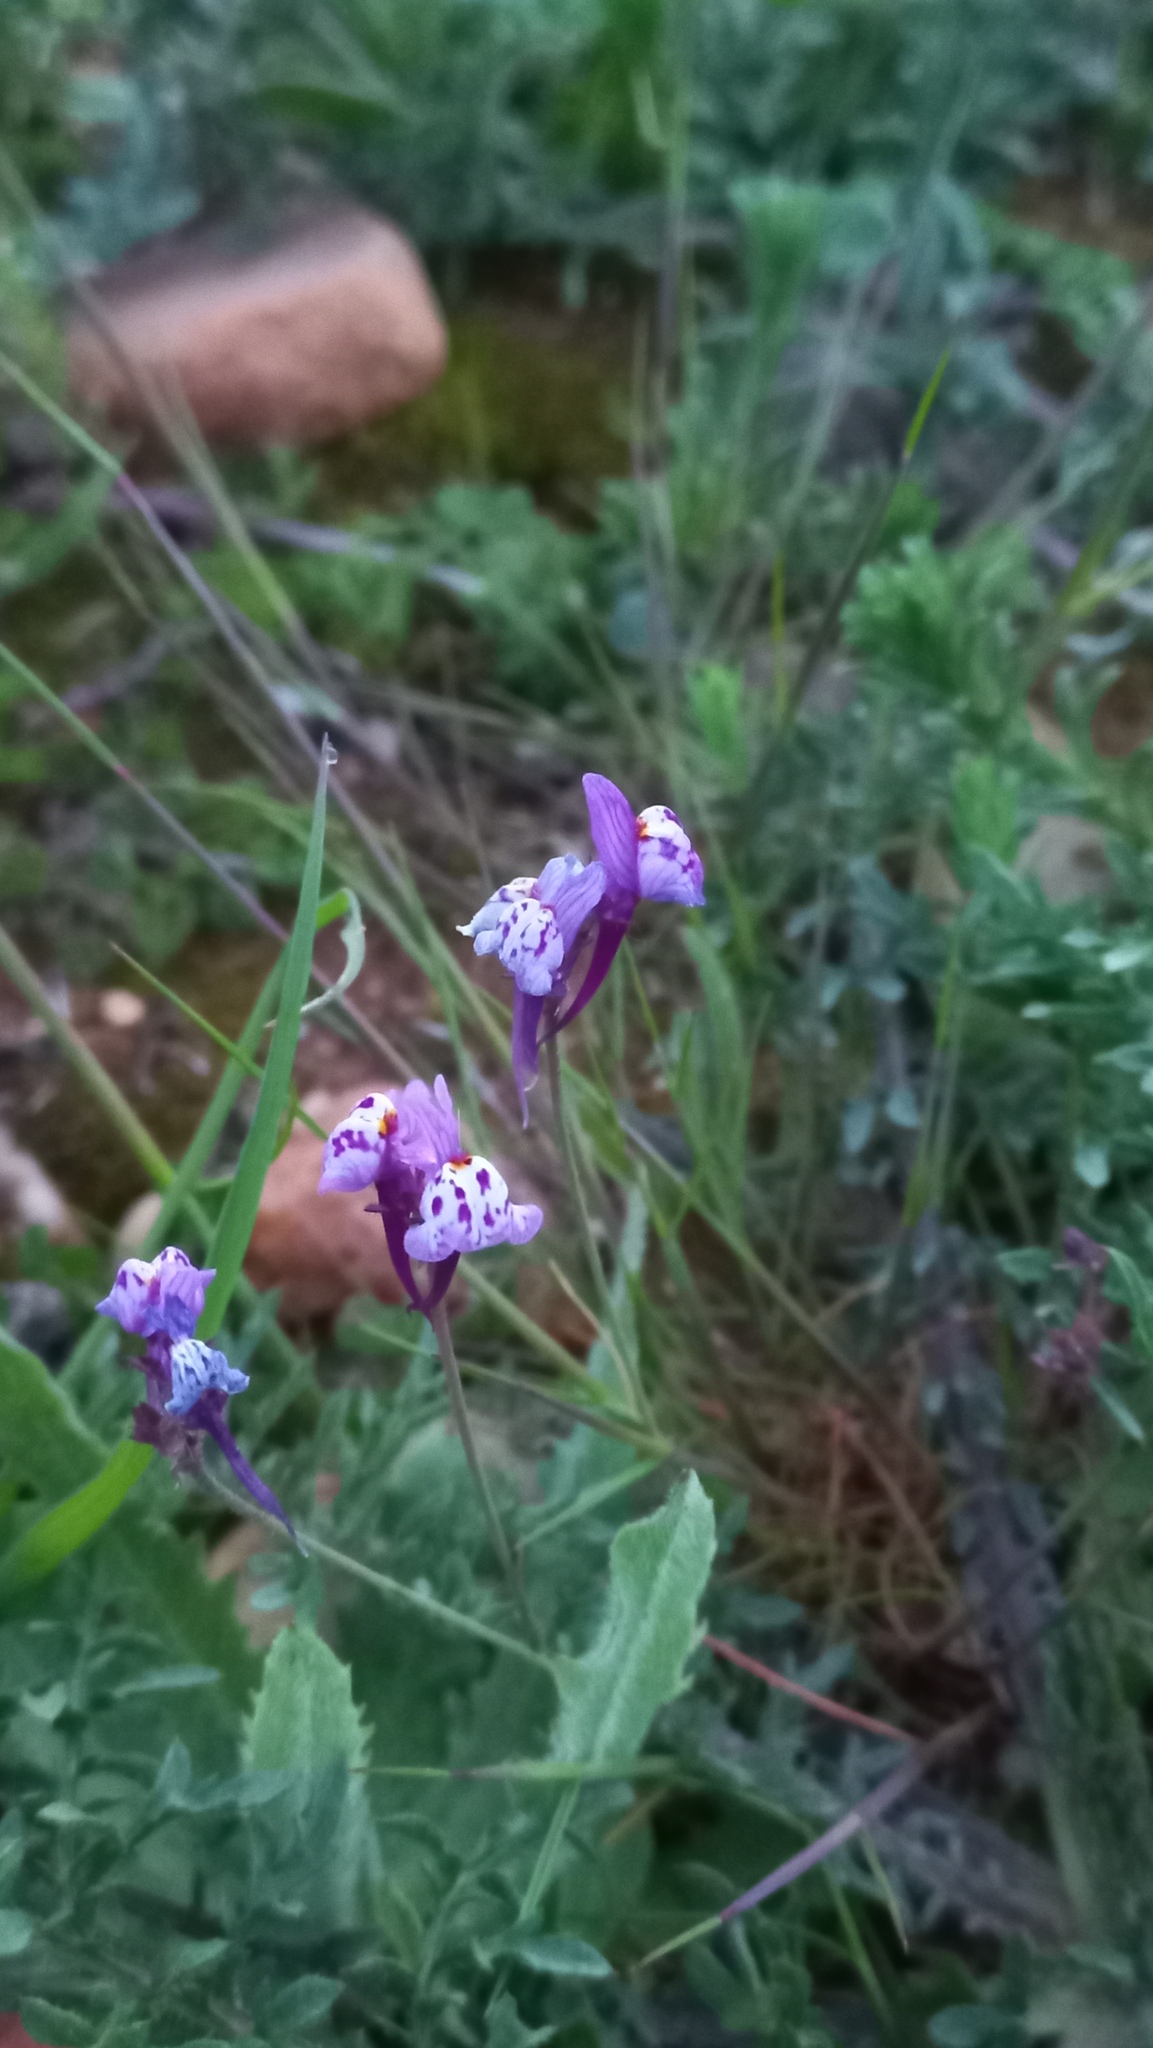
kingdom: Plantae
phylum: Tracheophyta
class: Magnoliopsida
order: Lamiales
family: Plantaginaceae
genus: Linaria
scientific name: Linaria amethystea
